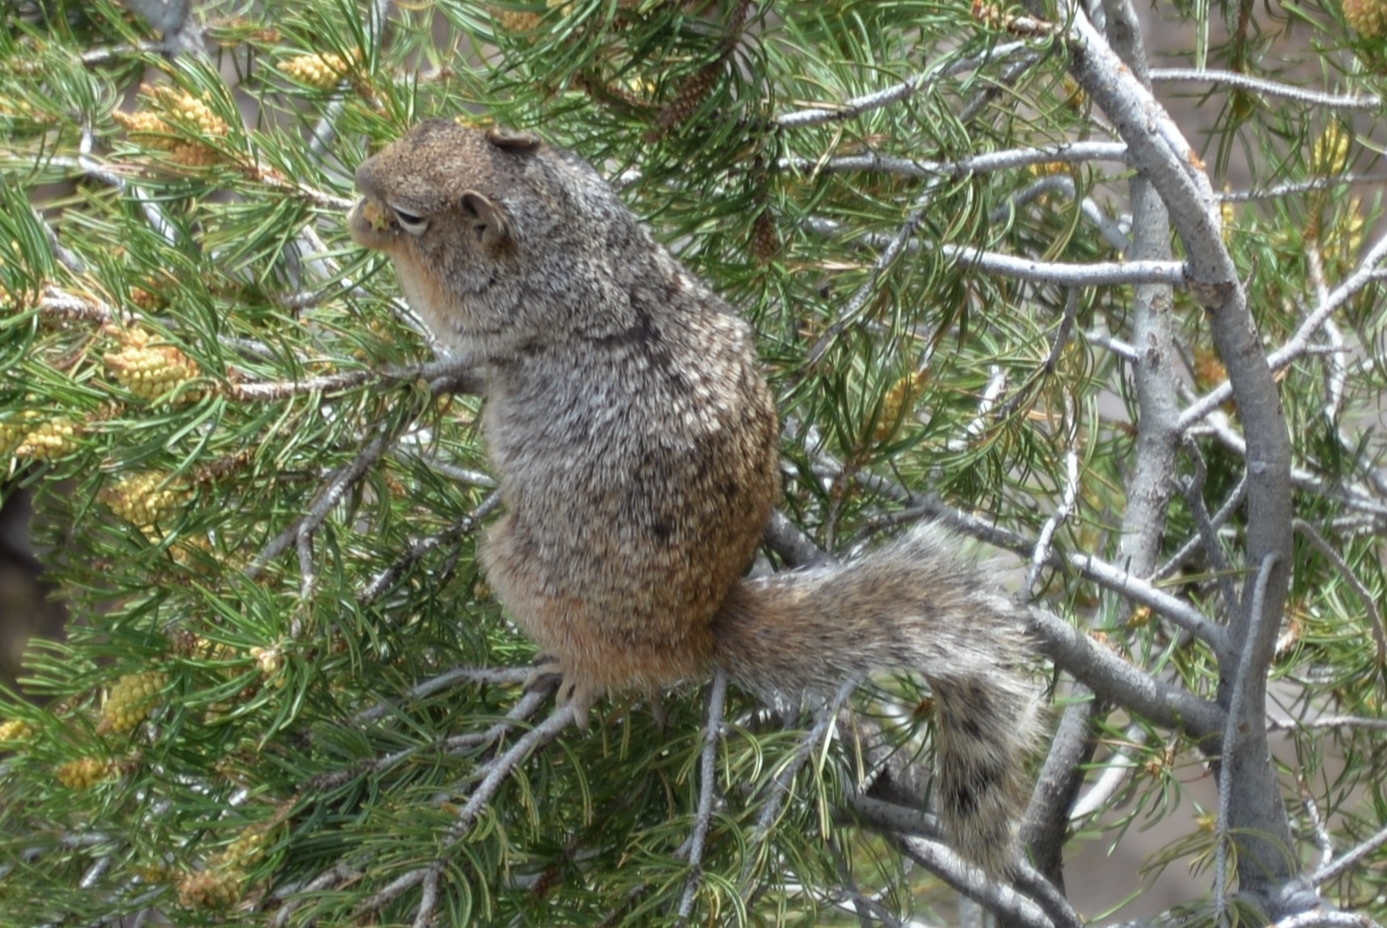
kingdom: Animalia
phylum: Chordata
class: Mammalia
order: Rodentia
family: Sciuridae
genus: Otospermophilus
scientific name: Otospermophilus variegatus
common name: Rock squirrel
